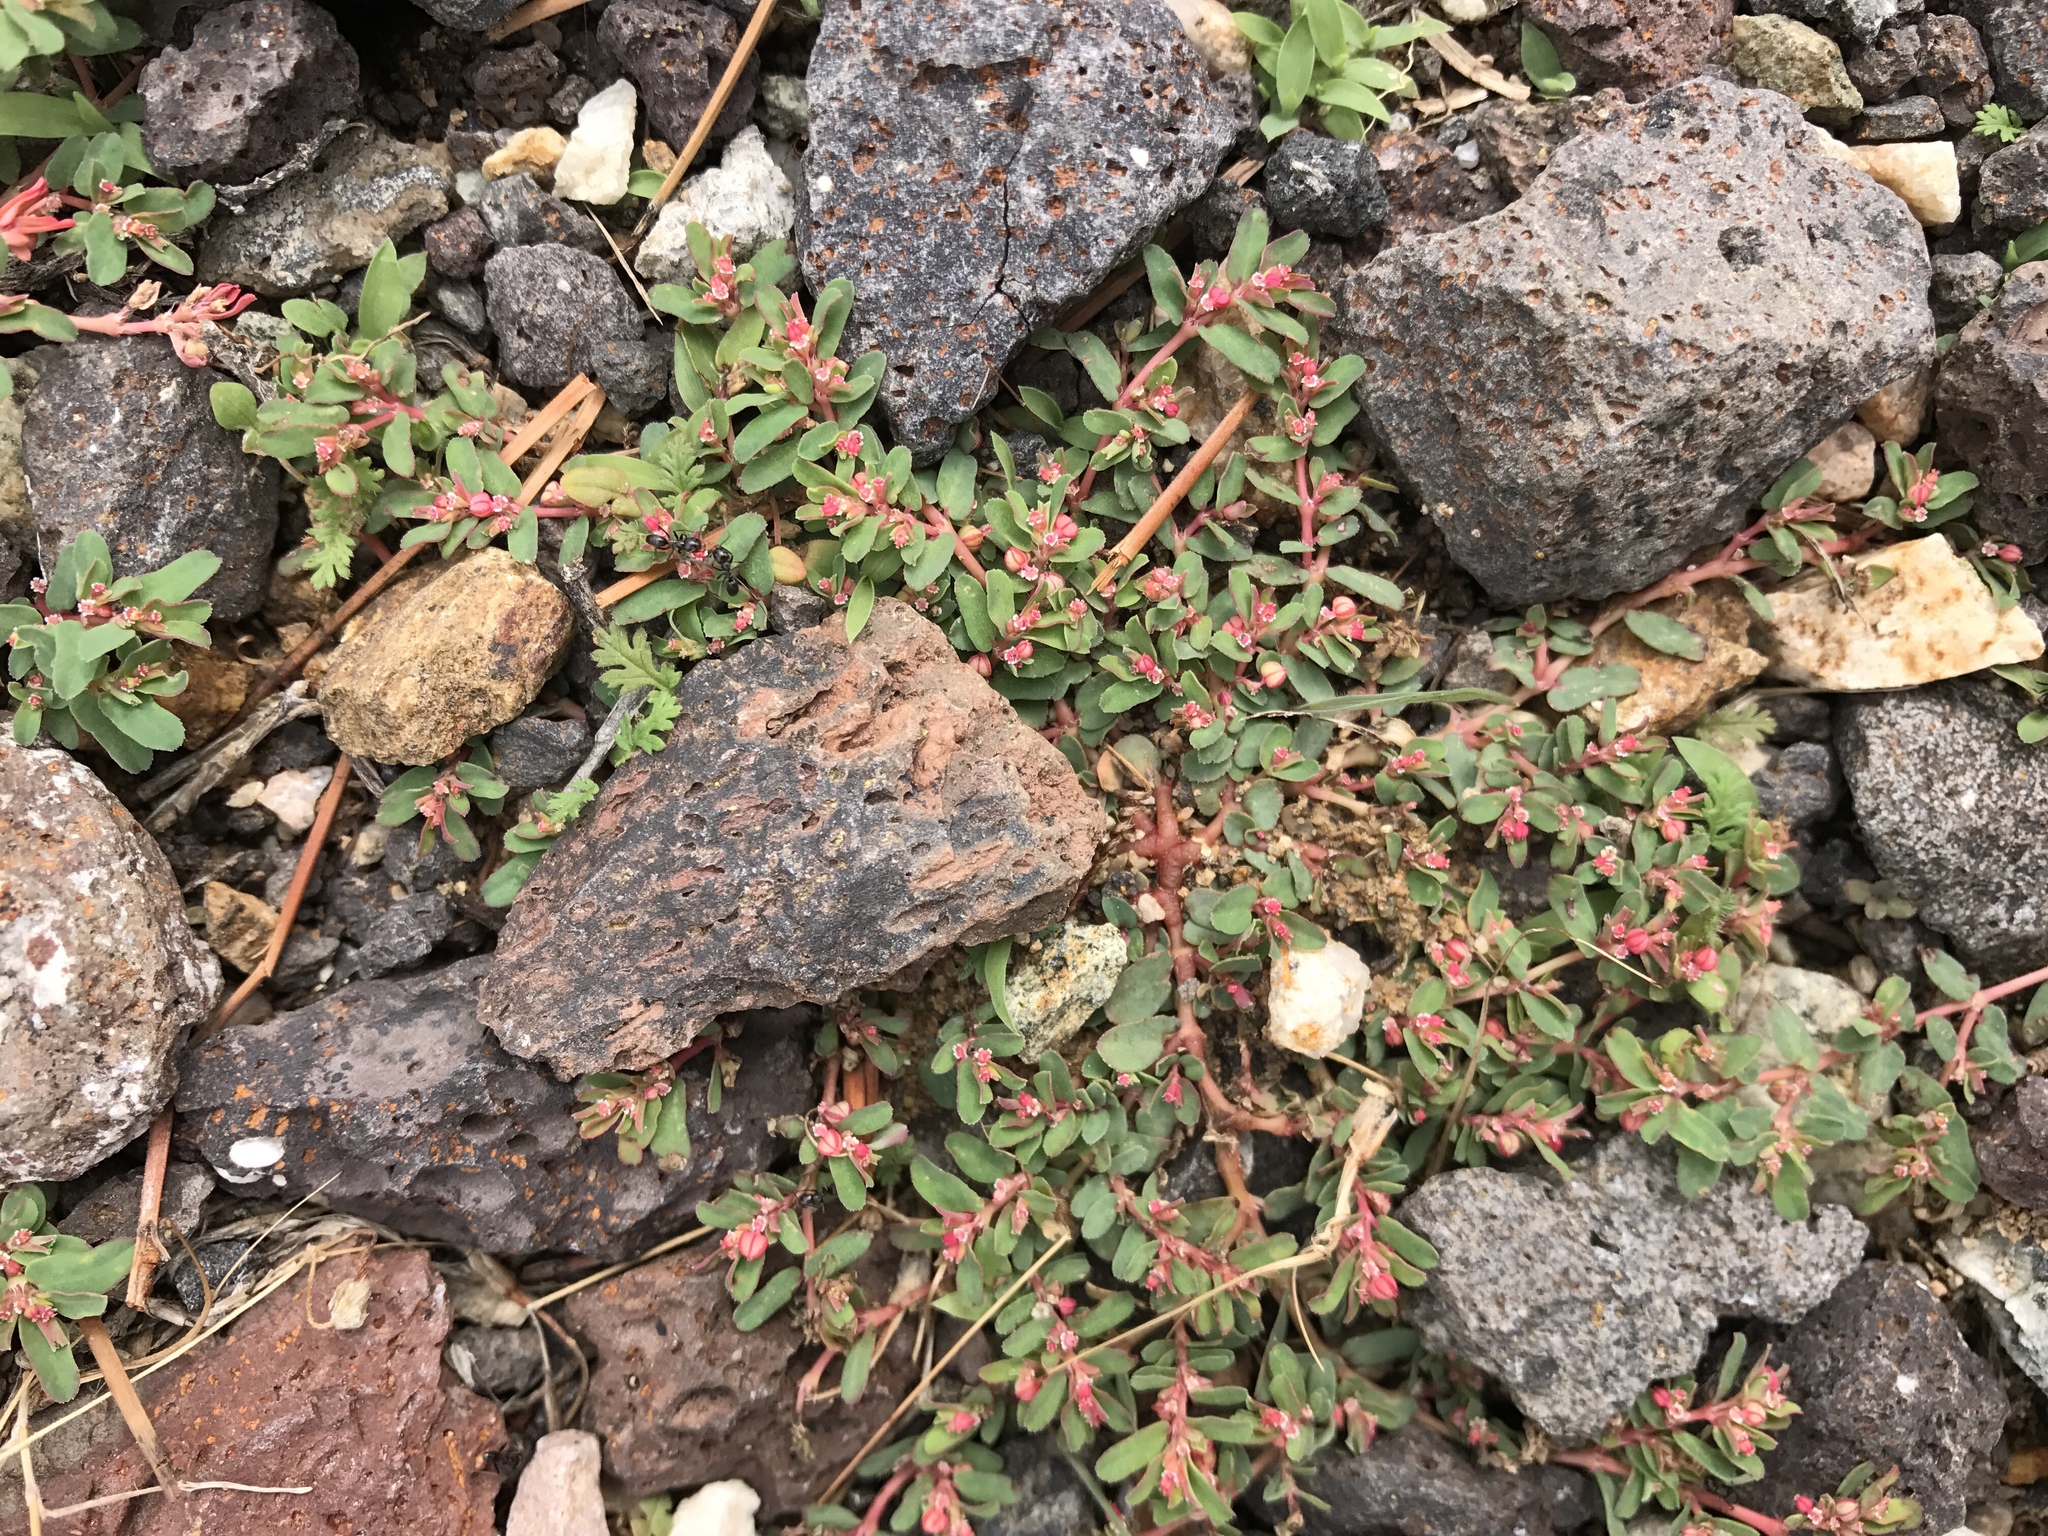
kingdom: Plantae
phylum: Tracheophyta
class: Magnoliopsida
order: Malpighiales
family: Euphorbiaceae
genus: Euphorbia
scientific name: Euphorbia serpillifolia
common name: Thyme-leaf spurge
